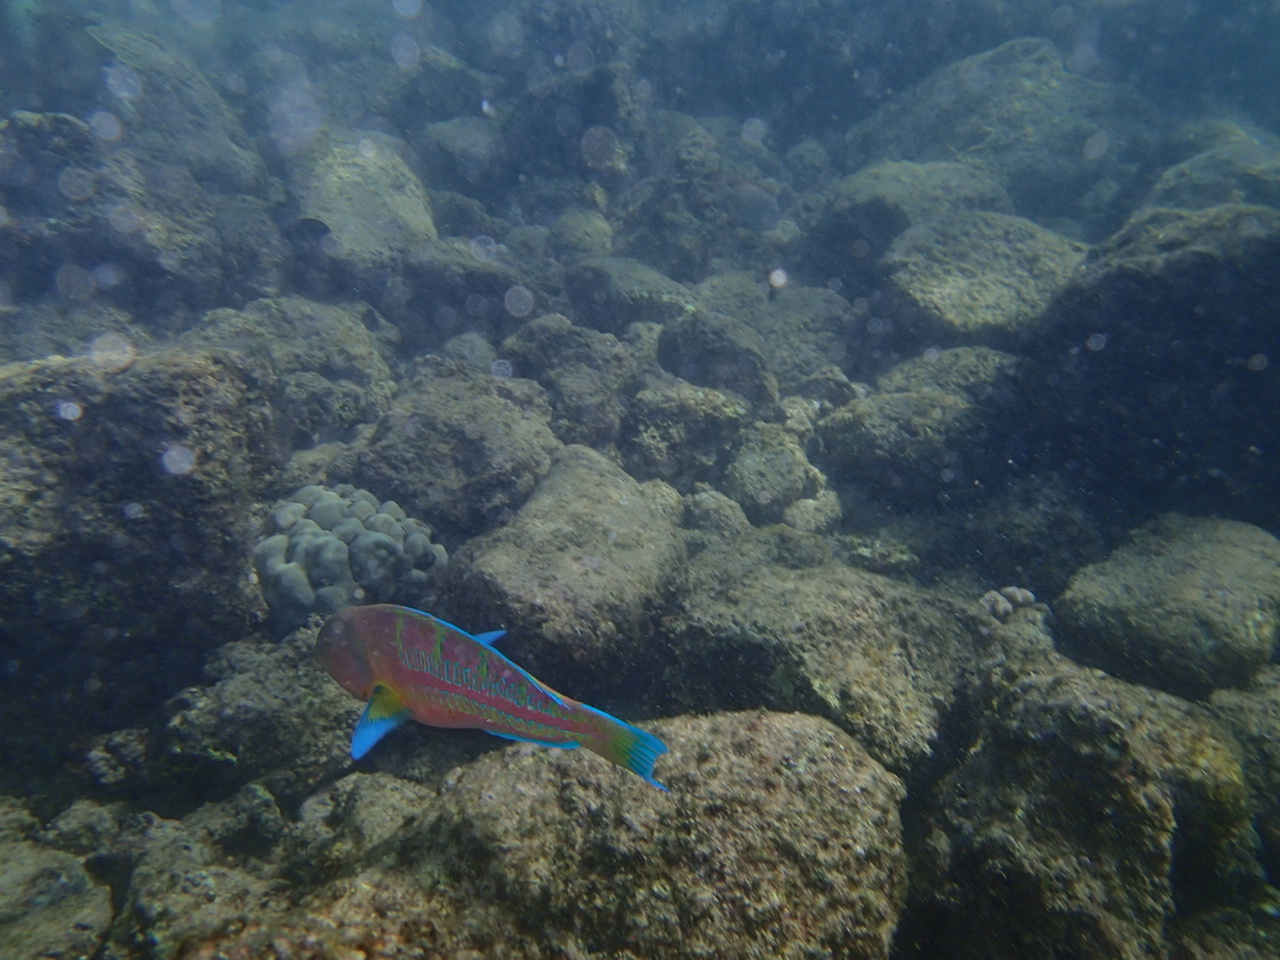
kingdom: Animalia
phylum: Chordata
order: Perciformes
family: Labridae
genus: Thalassoma
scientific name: Thalassoma trilobatum
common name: Christmas wrasse
